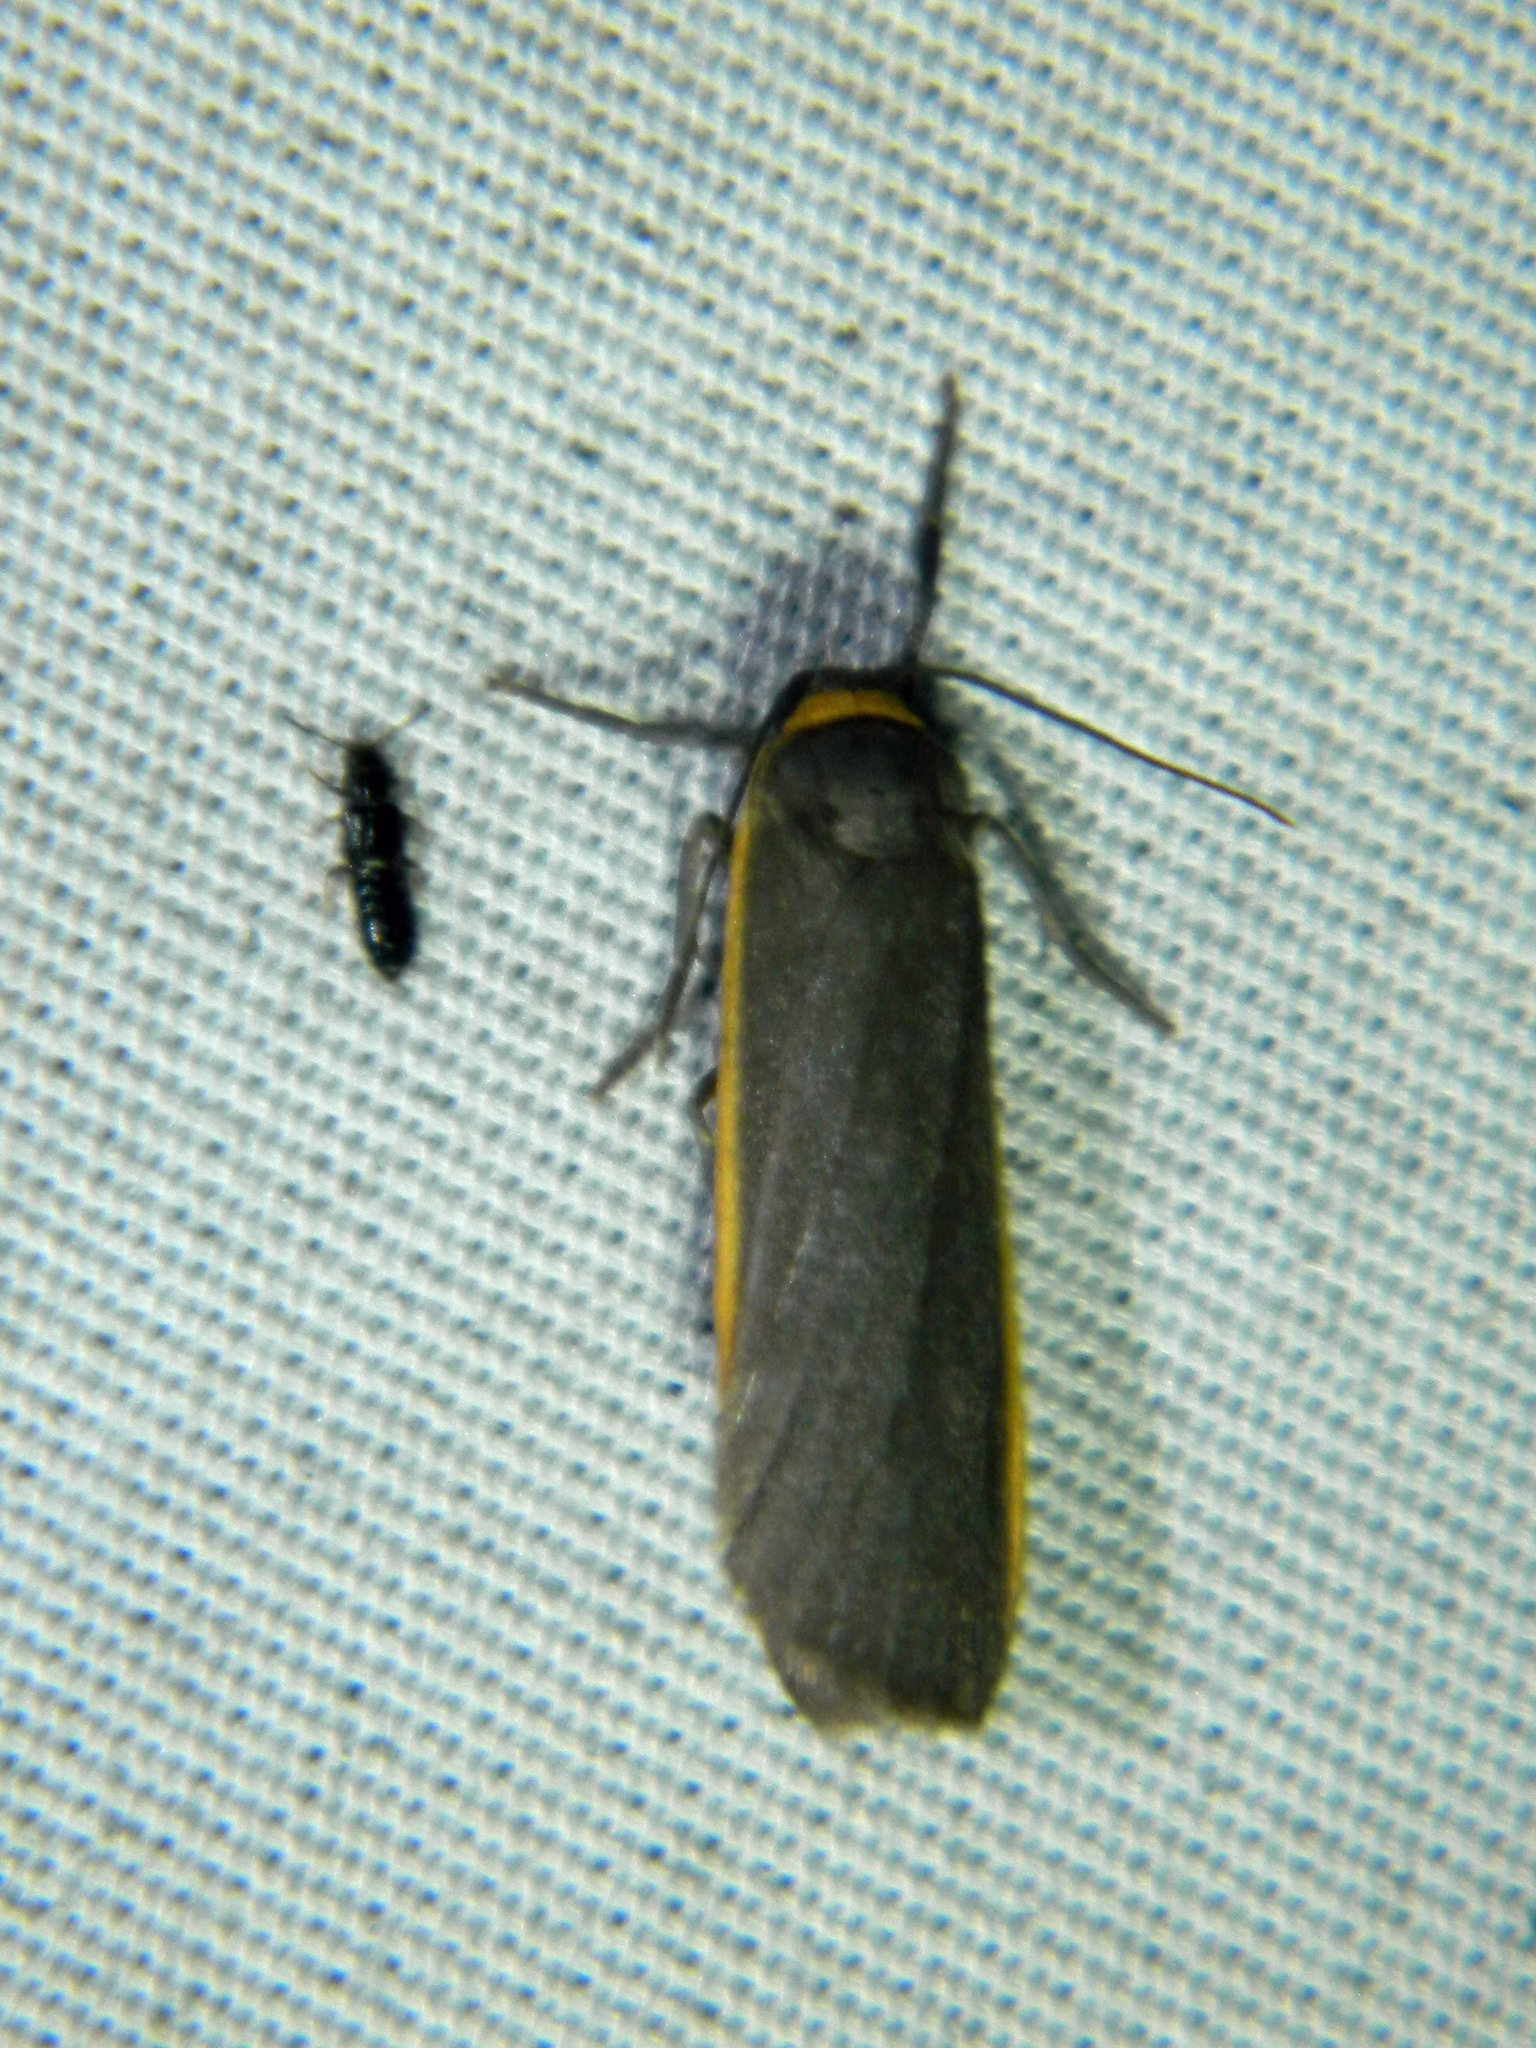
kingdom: Animalia
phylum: Arthropoda
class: Insecta
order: Lepidoptera
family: Erebidae
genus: Manulea
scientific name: Manulea bicolor
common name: Bicolored moth
